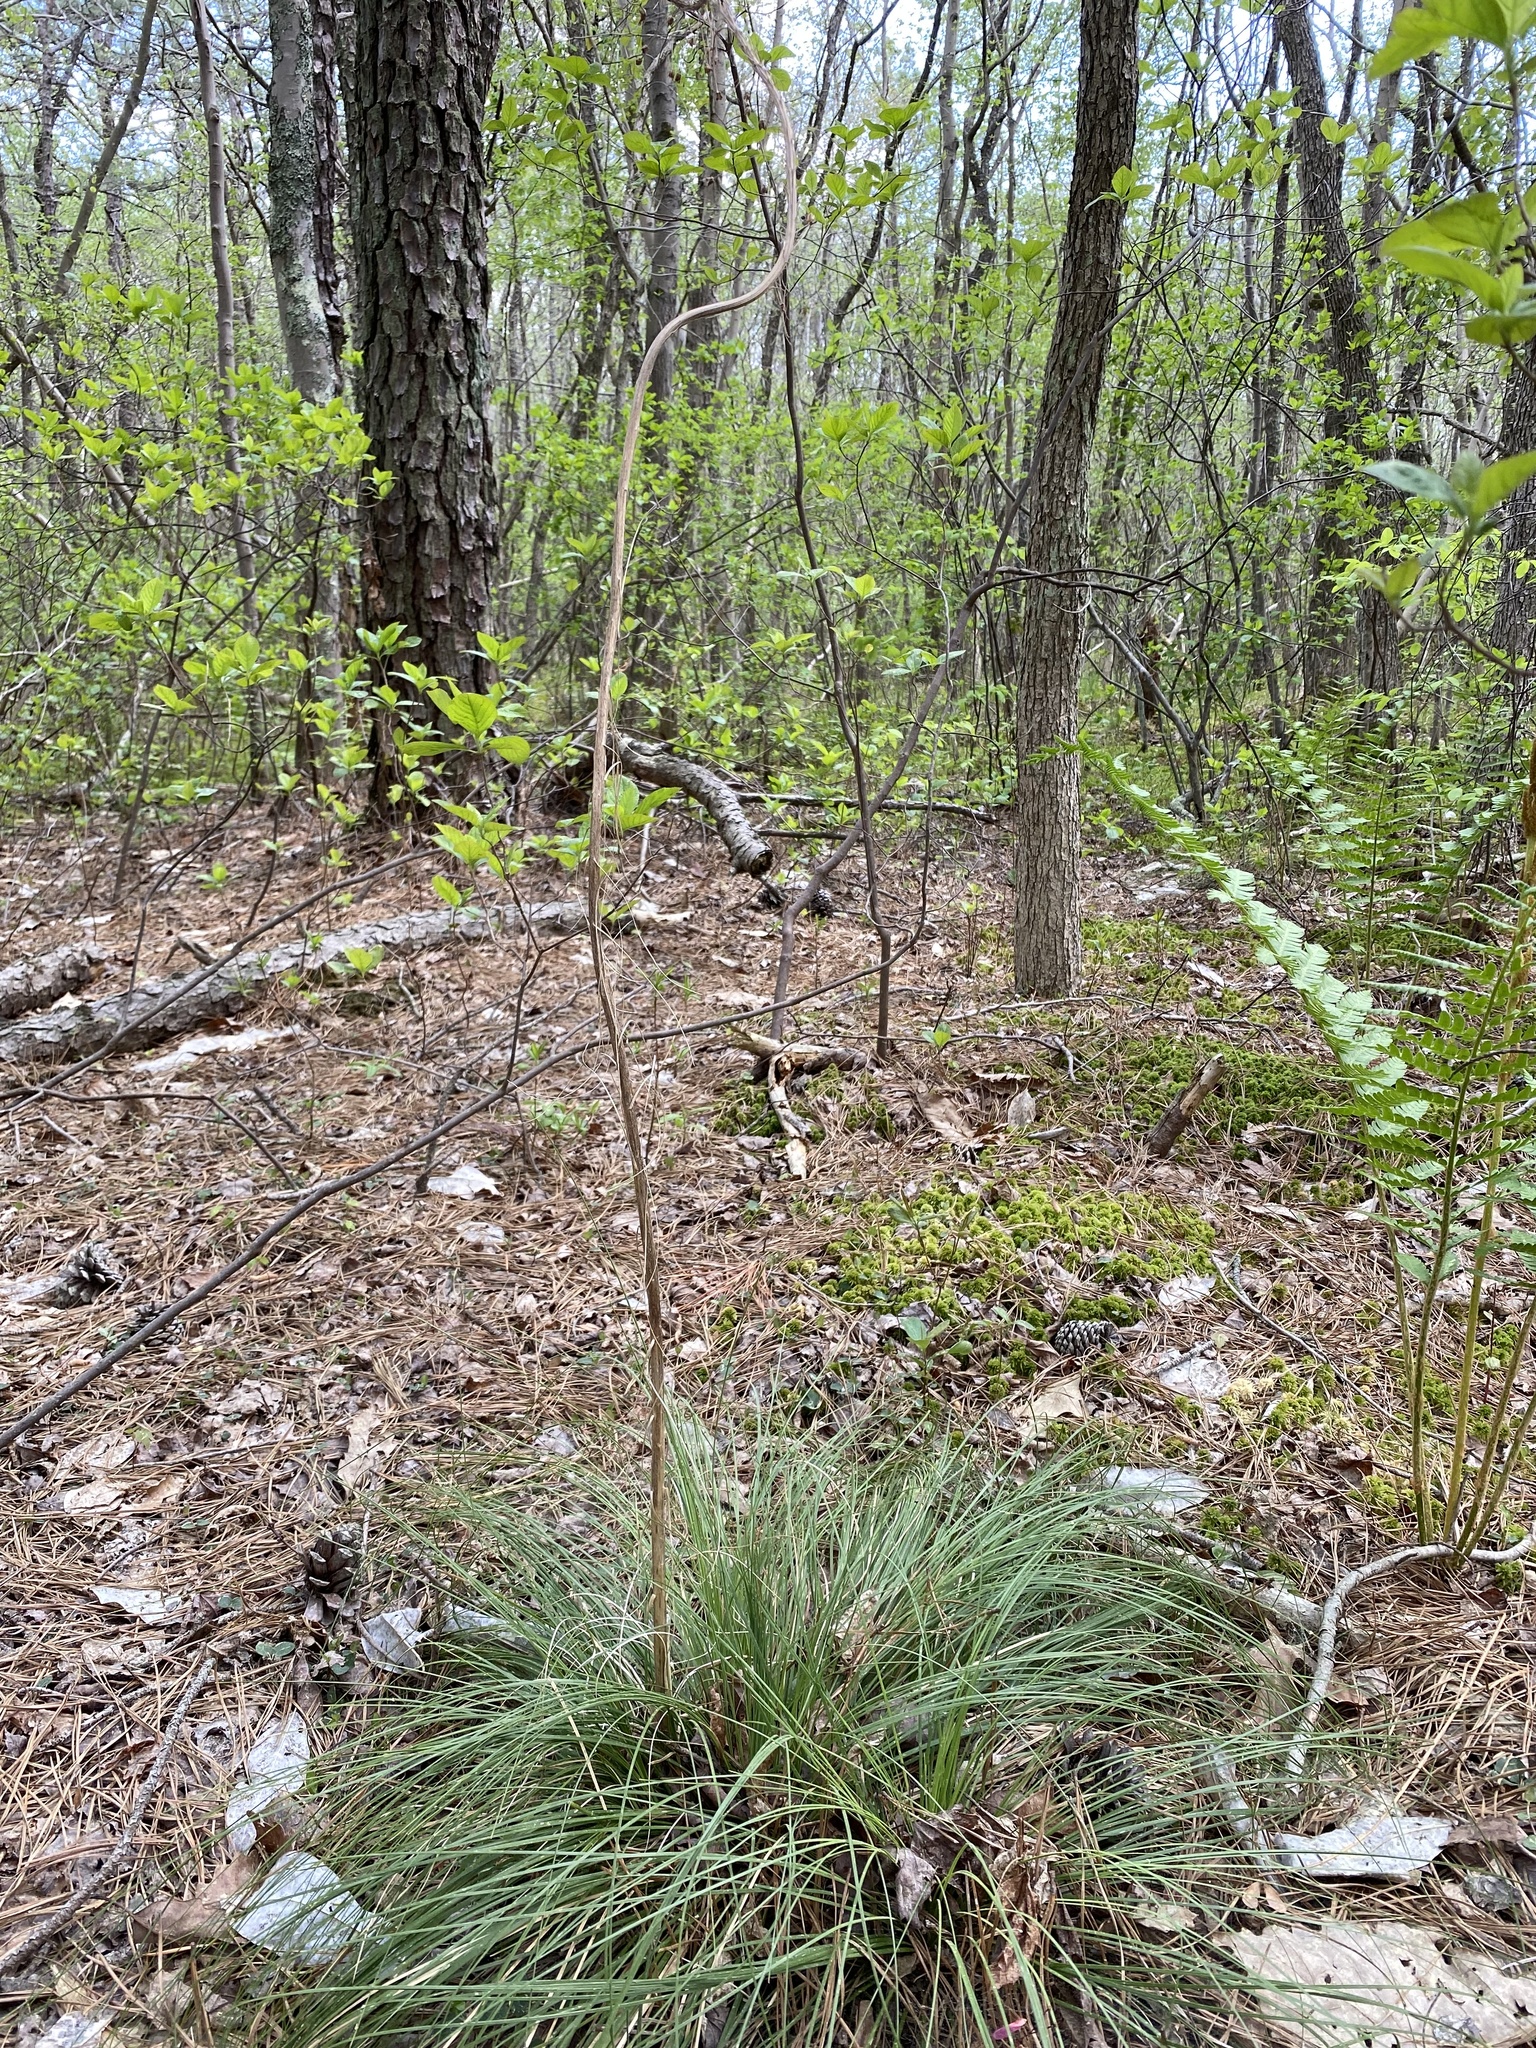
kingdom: Plantae
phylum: Tracheophyta
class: Liliopsida
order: Liliales
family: Melanthiaceae
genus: Xerophyllum
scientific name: Xerophyllum asphodeloides
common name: Mountain-asphodel
